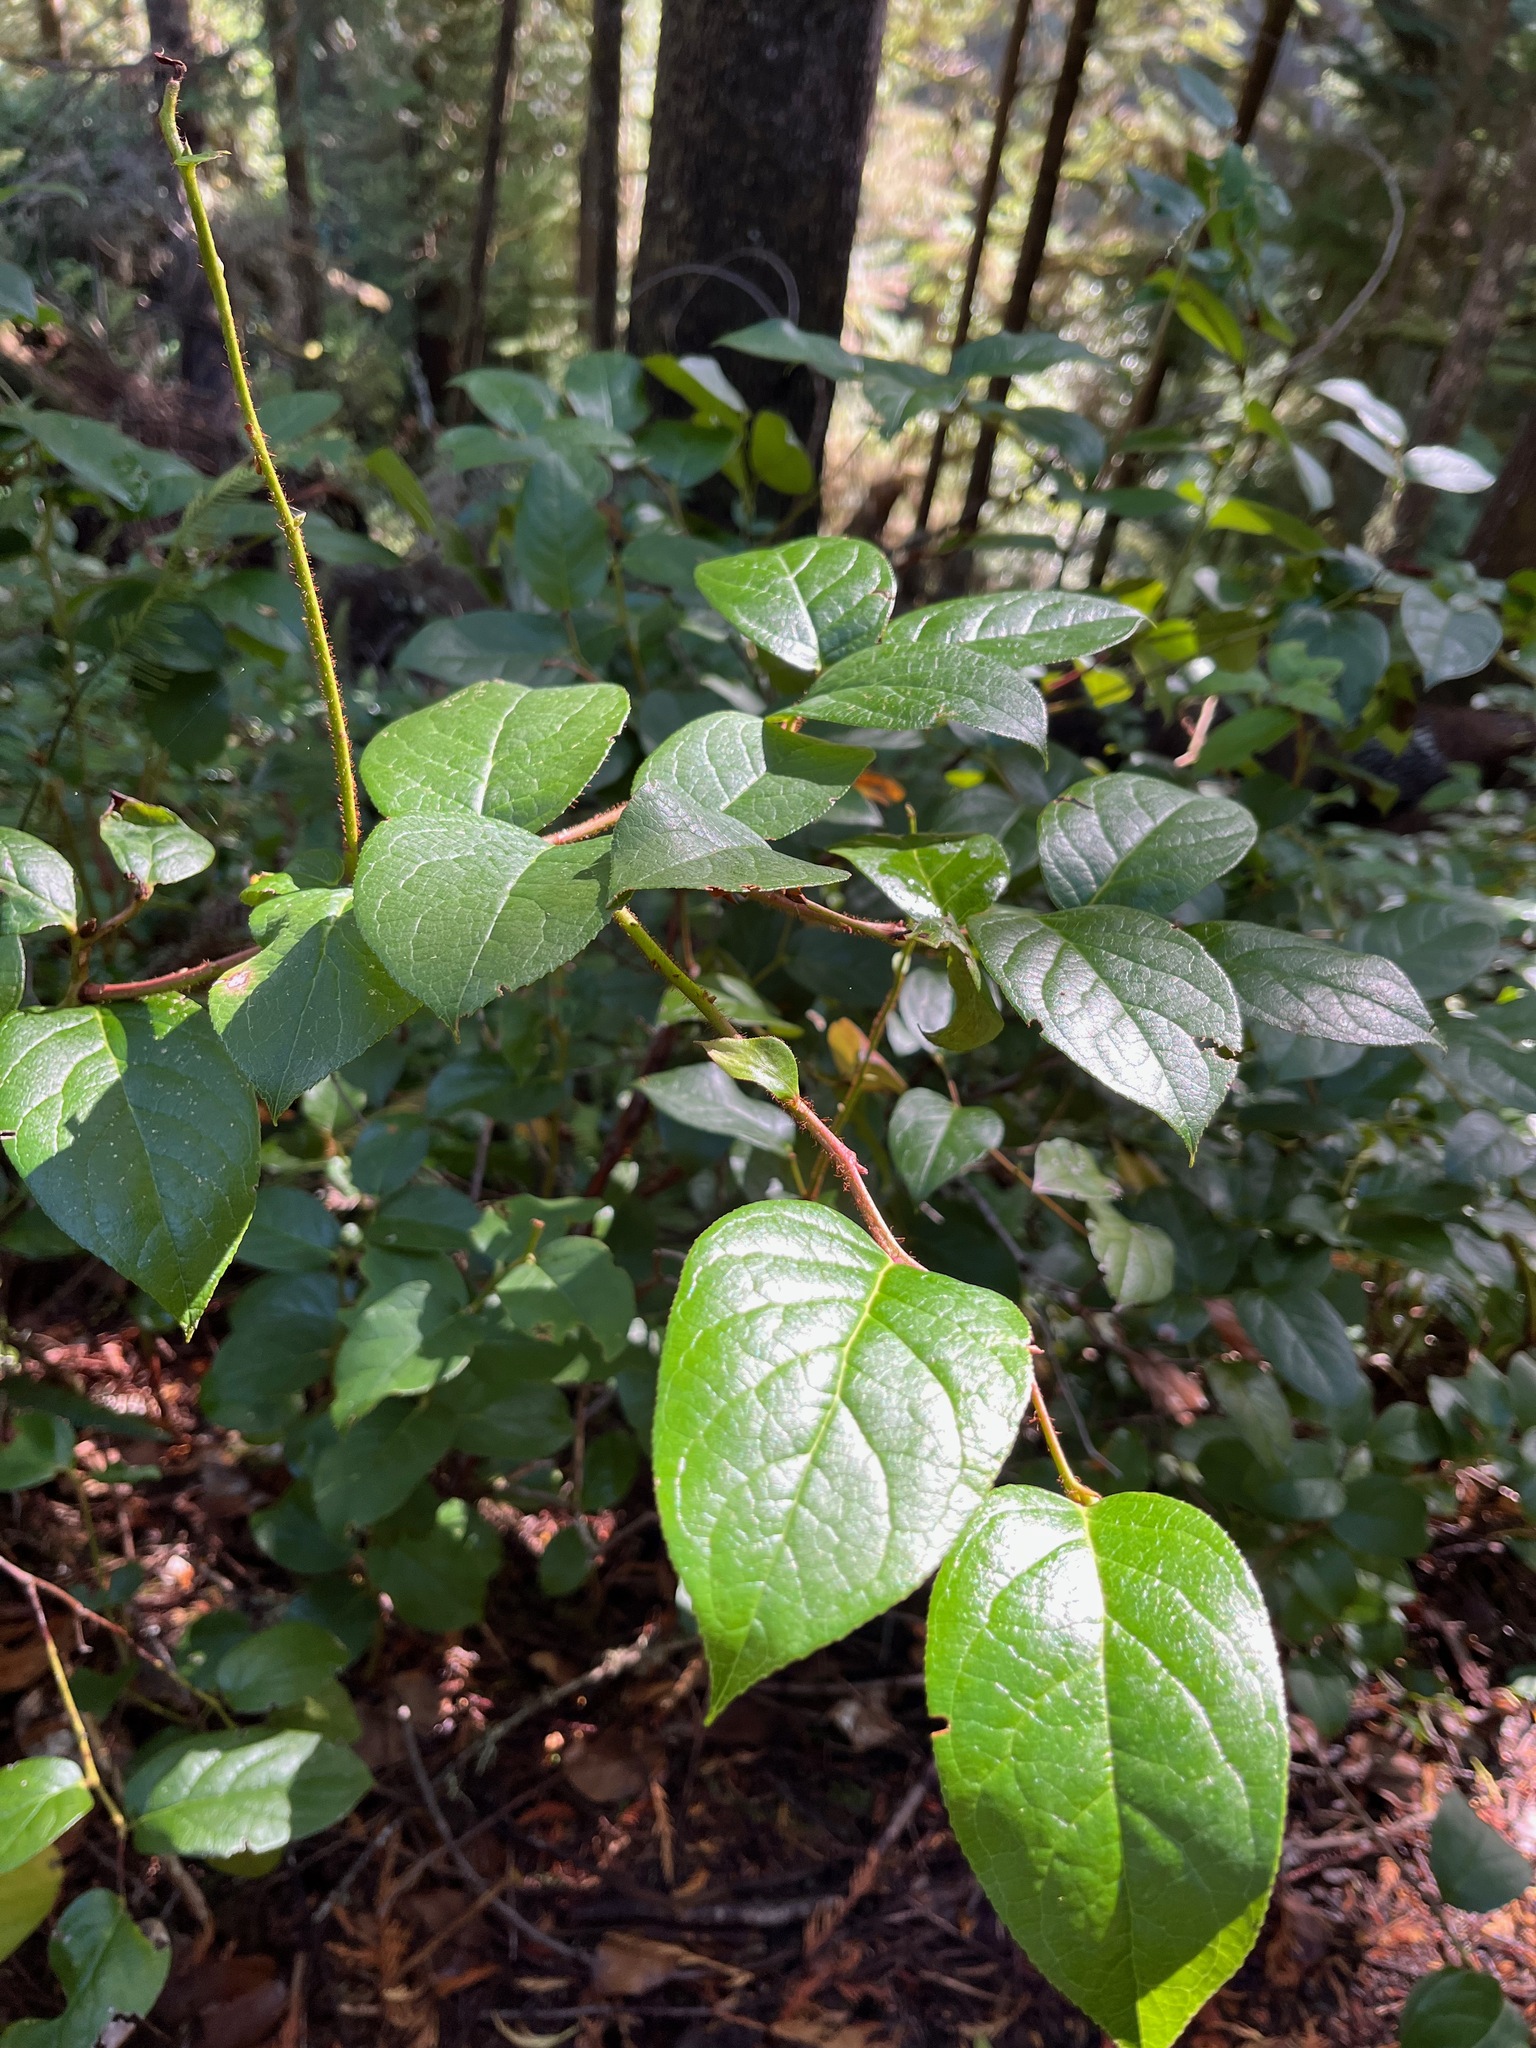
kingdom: Plantae
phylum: Tracheophyta
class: Magnoliopsida
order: Ericales
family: Ericaceae
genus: Gaultheria
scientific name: Gaultheria shallon
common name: Shallon
